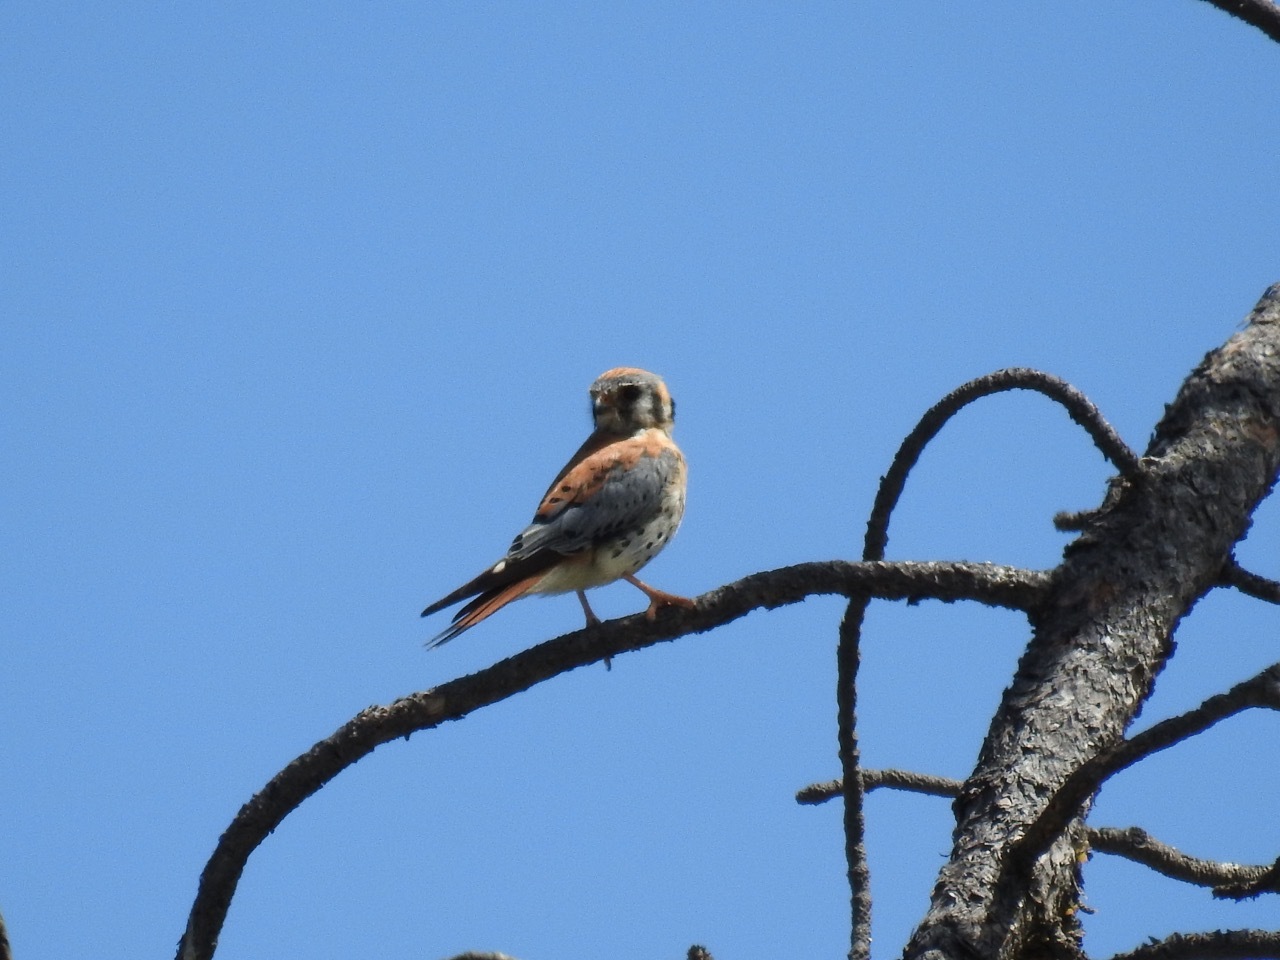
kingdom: Animalia
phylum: Chordata
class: Aves
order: Falconiformes
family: Falconidae
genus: Falco
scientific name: Falco sparverius
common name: American kestrel
